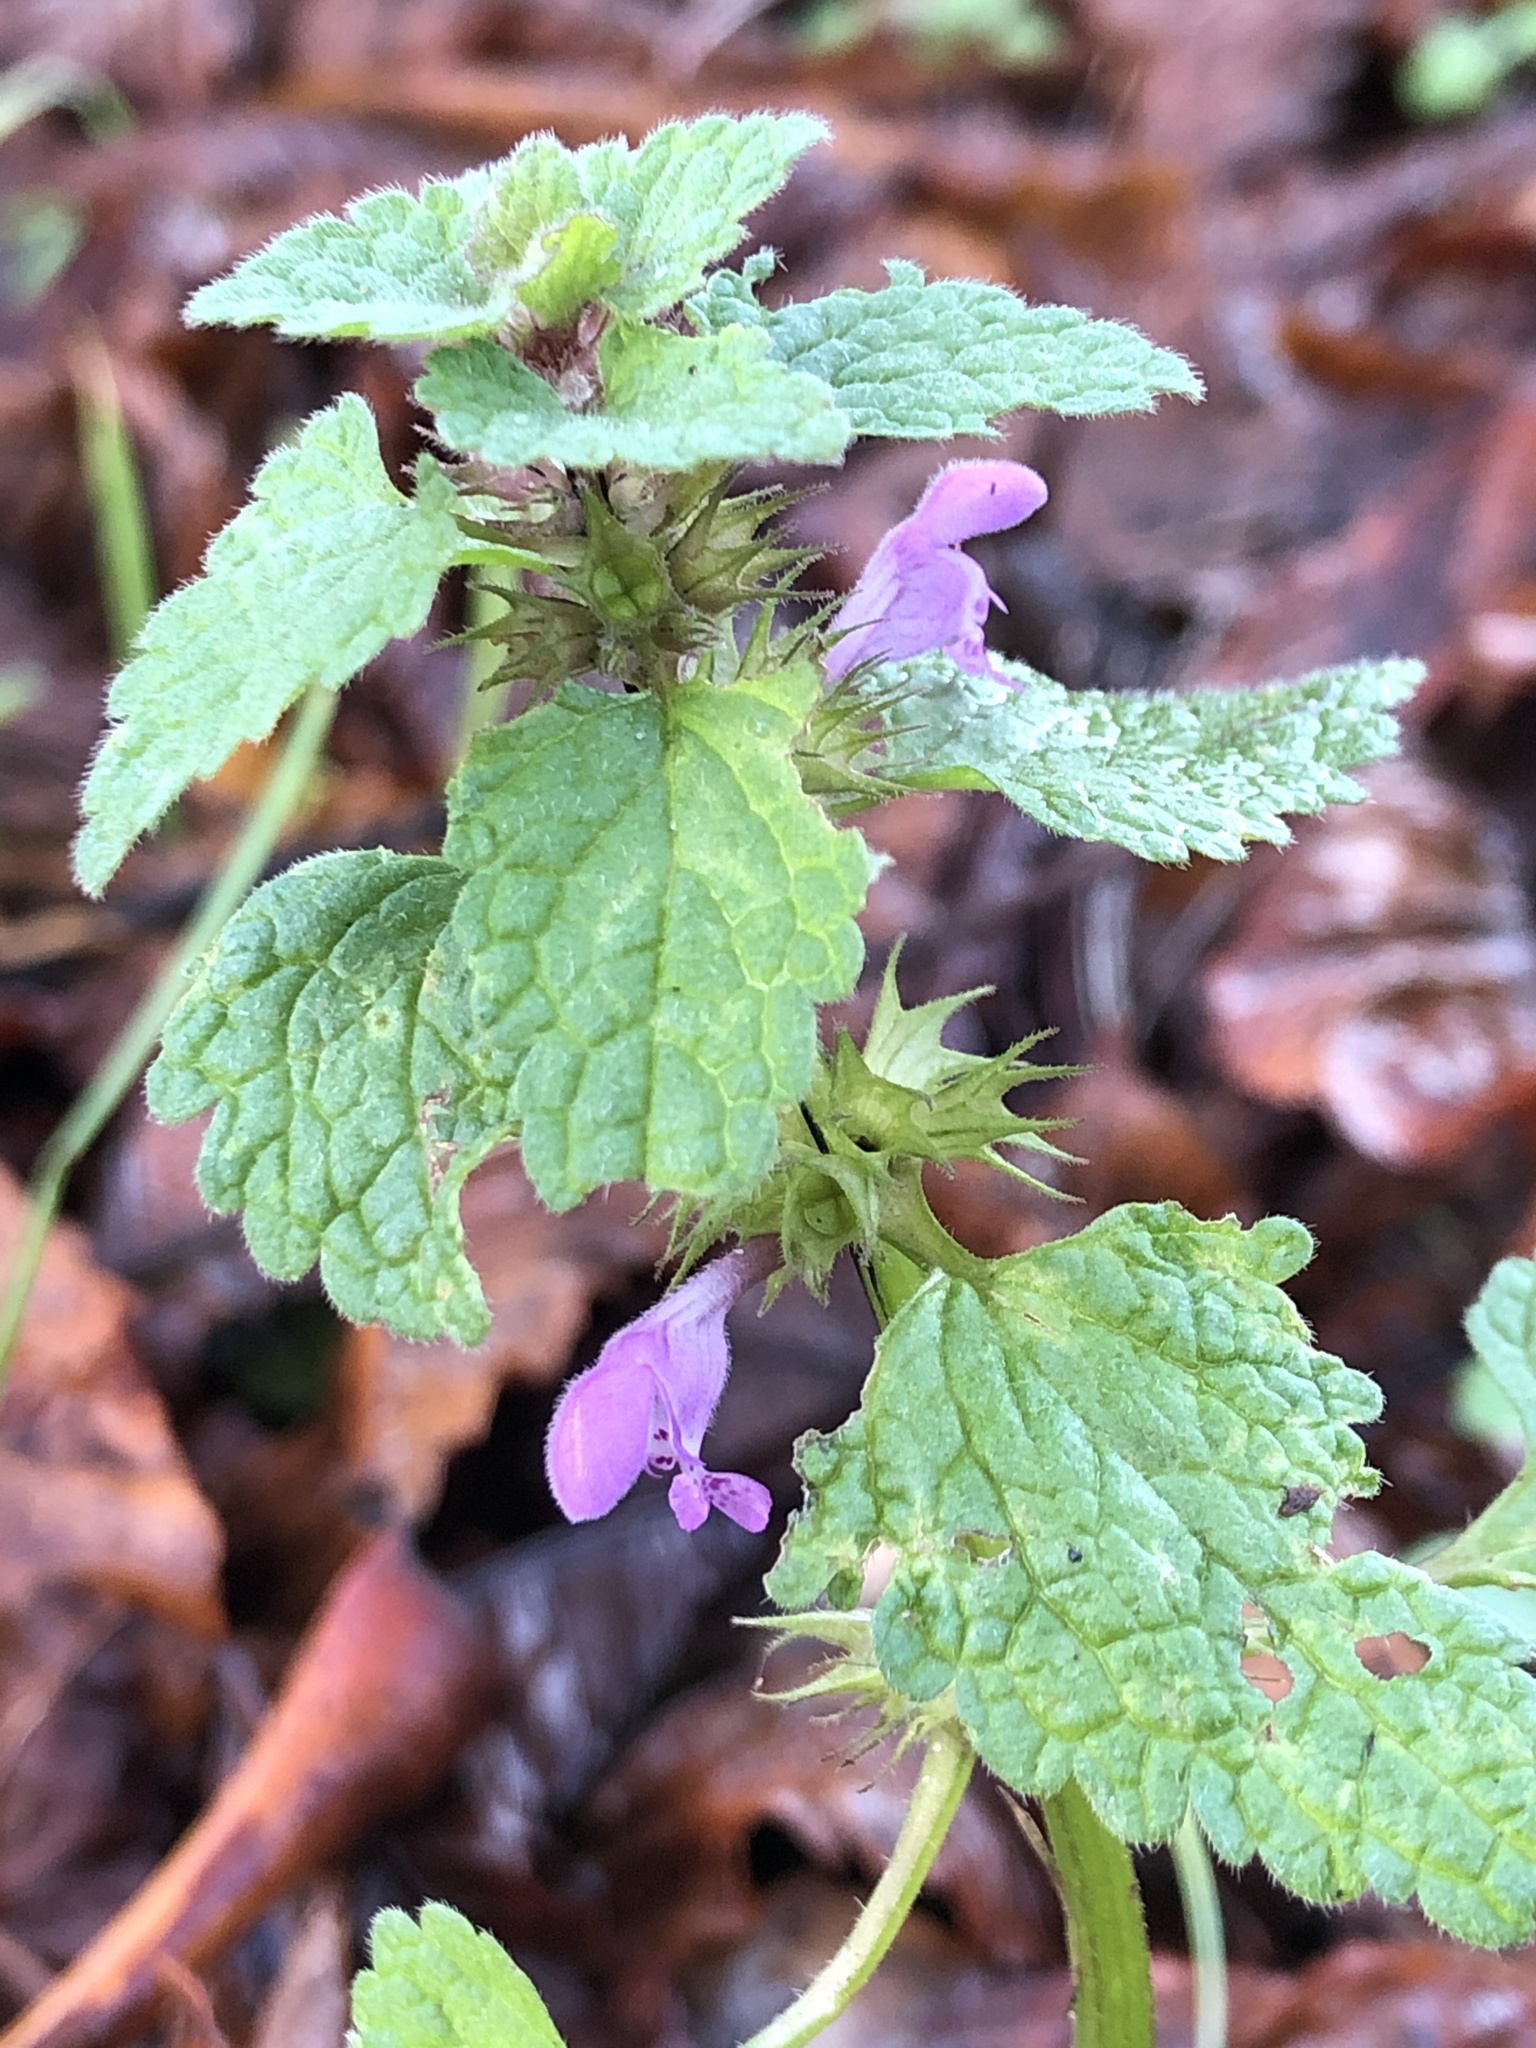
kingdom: Plantae
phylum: Tracheophyta
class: Magnoliopsida
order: Lamiales
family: Lamiaceae
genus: Lamium
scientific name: Lamium purpureum
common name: Red dead-nettle
